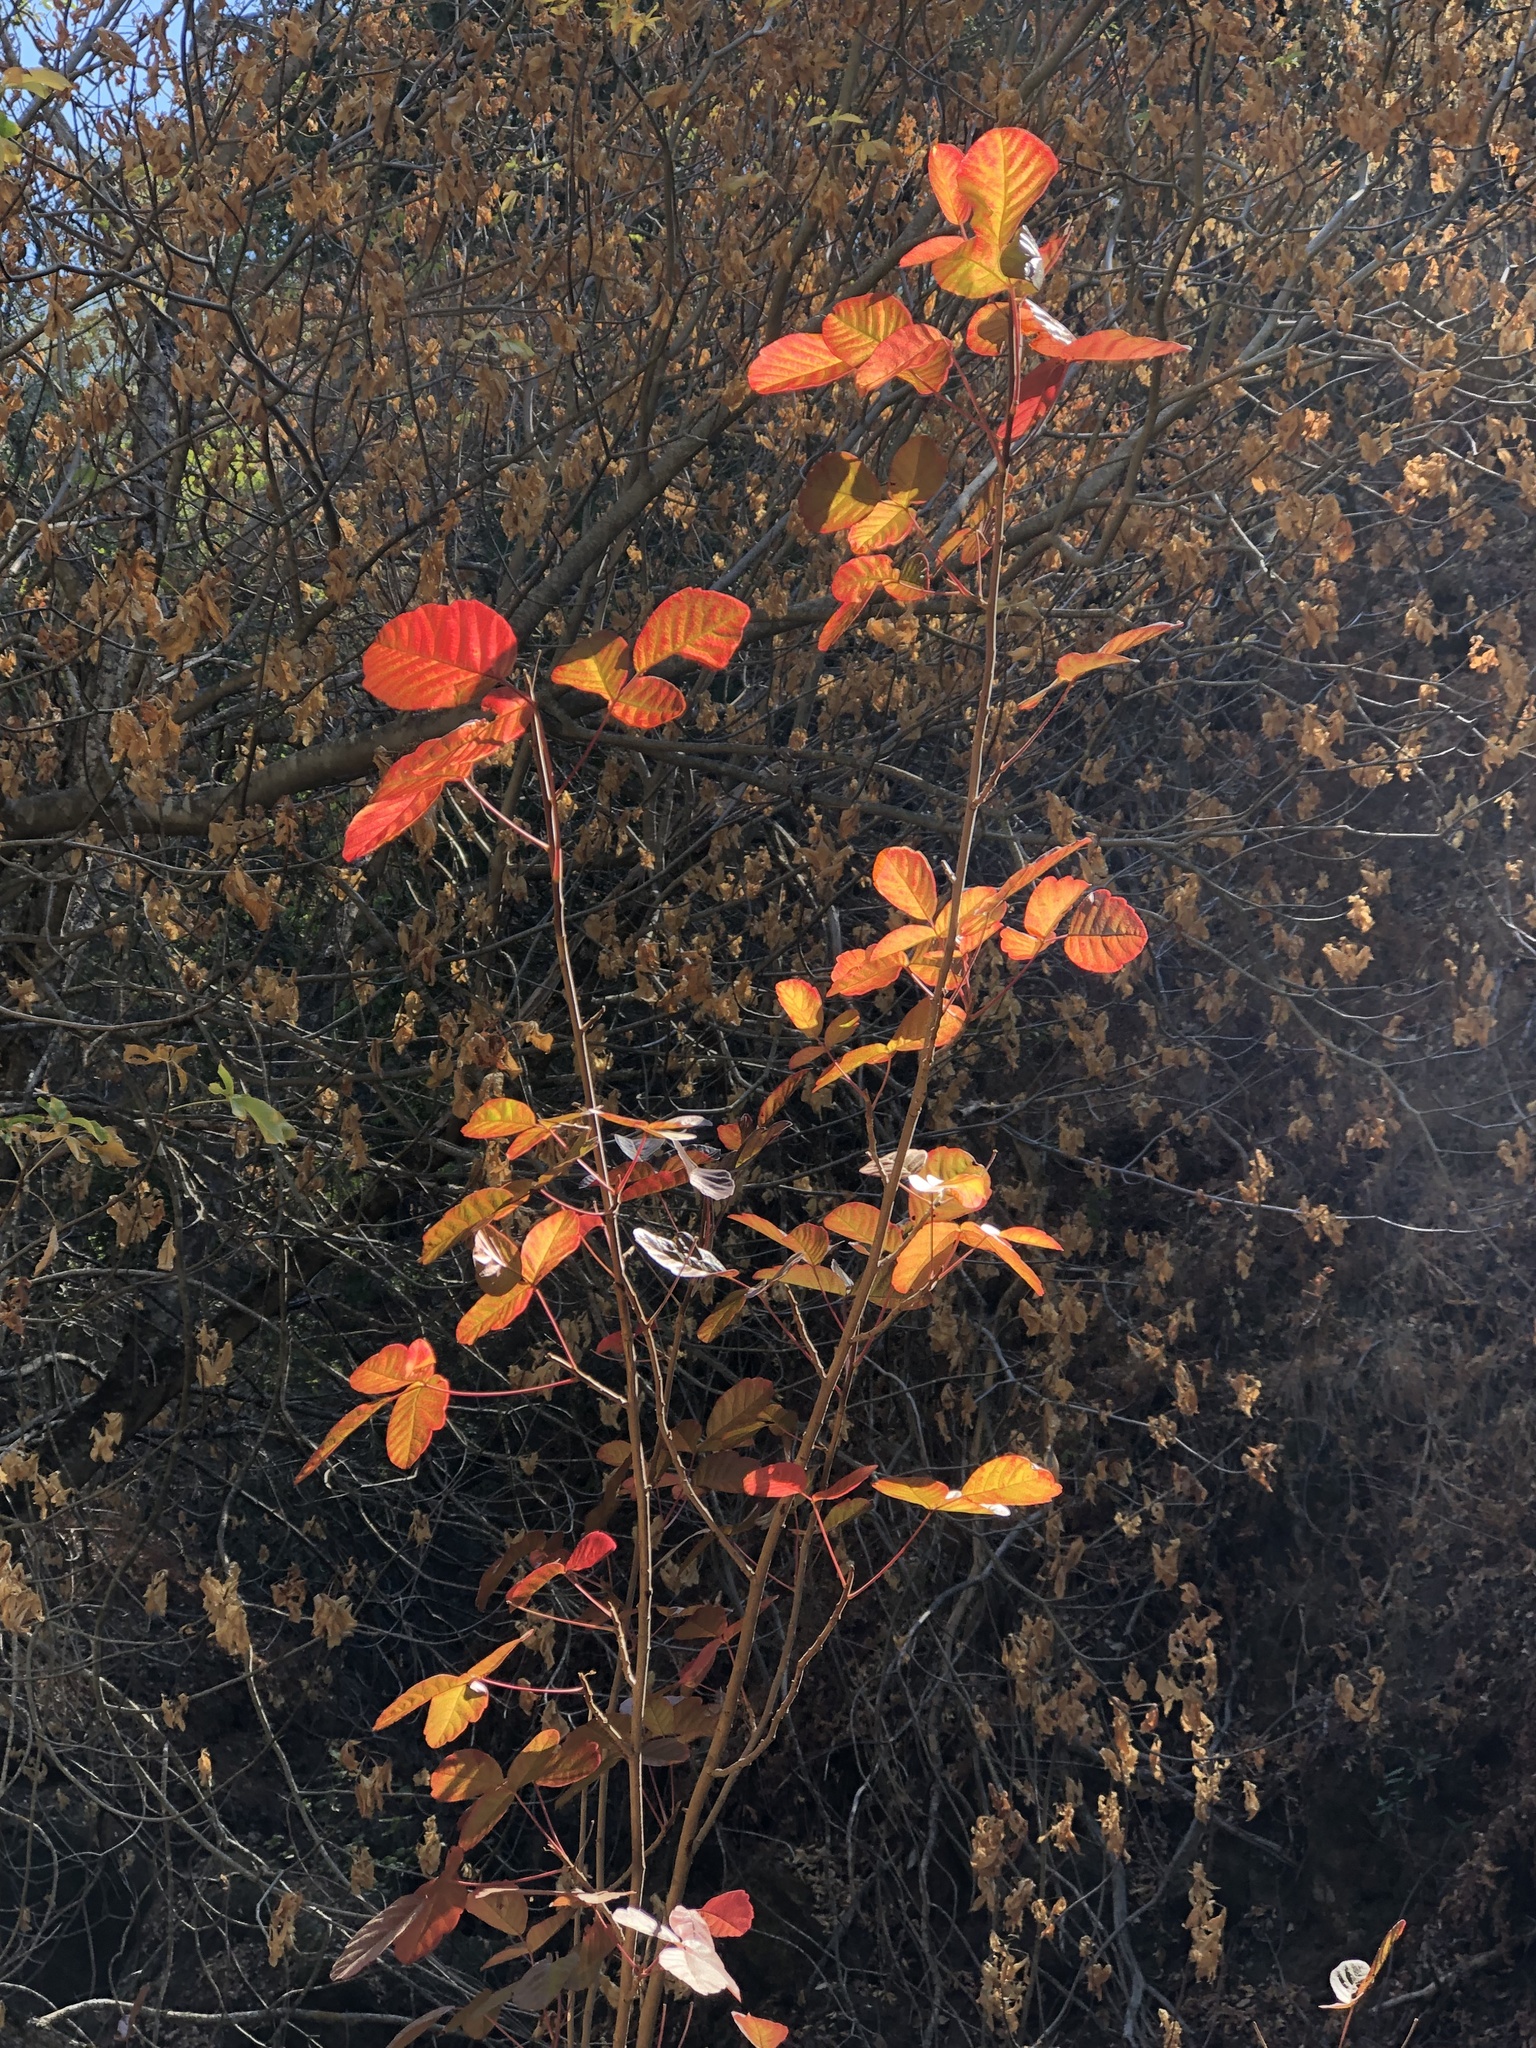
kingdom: Plantae
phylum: Tracheophyta
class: Magnoliopsida
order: Sapindales
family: Anacardiaceae
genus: Toxicodendron
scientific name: Toxicodendron diversilobum
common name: Pacific poison-oak
